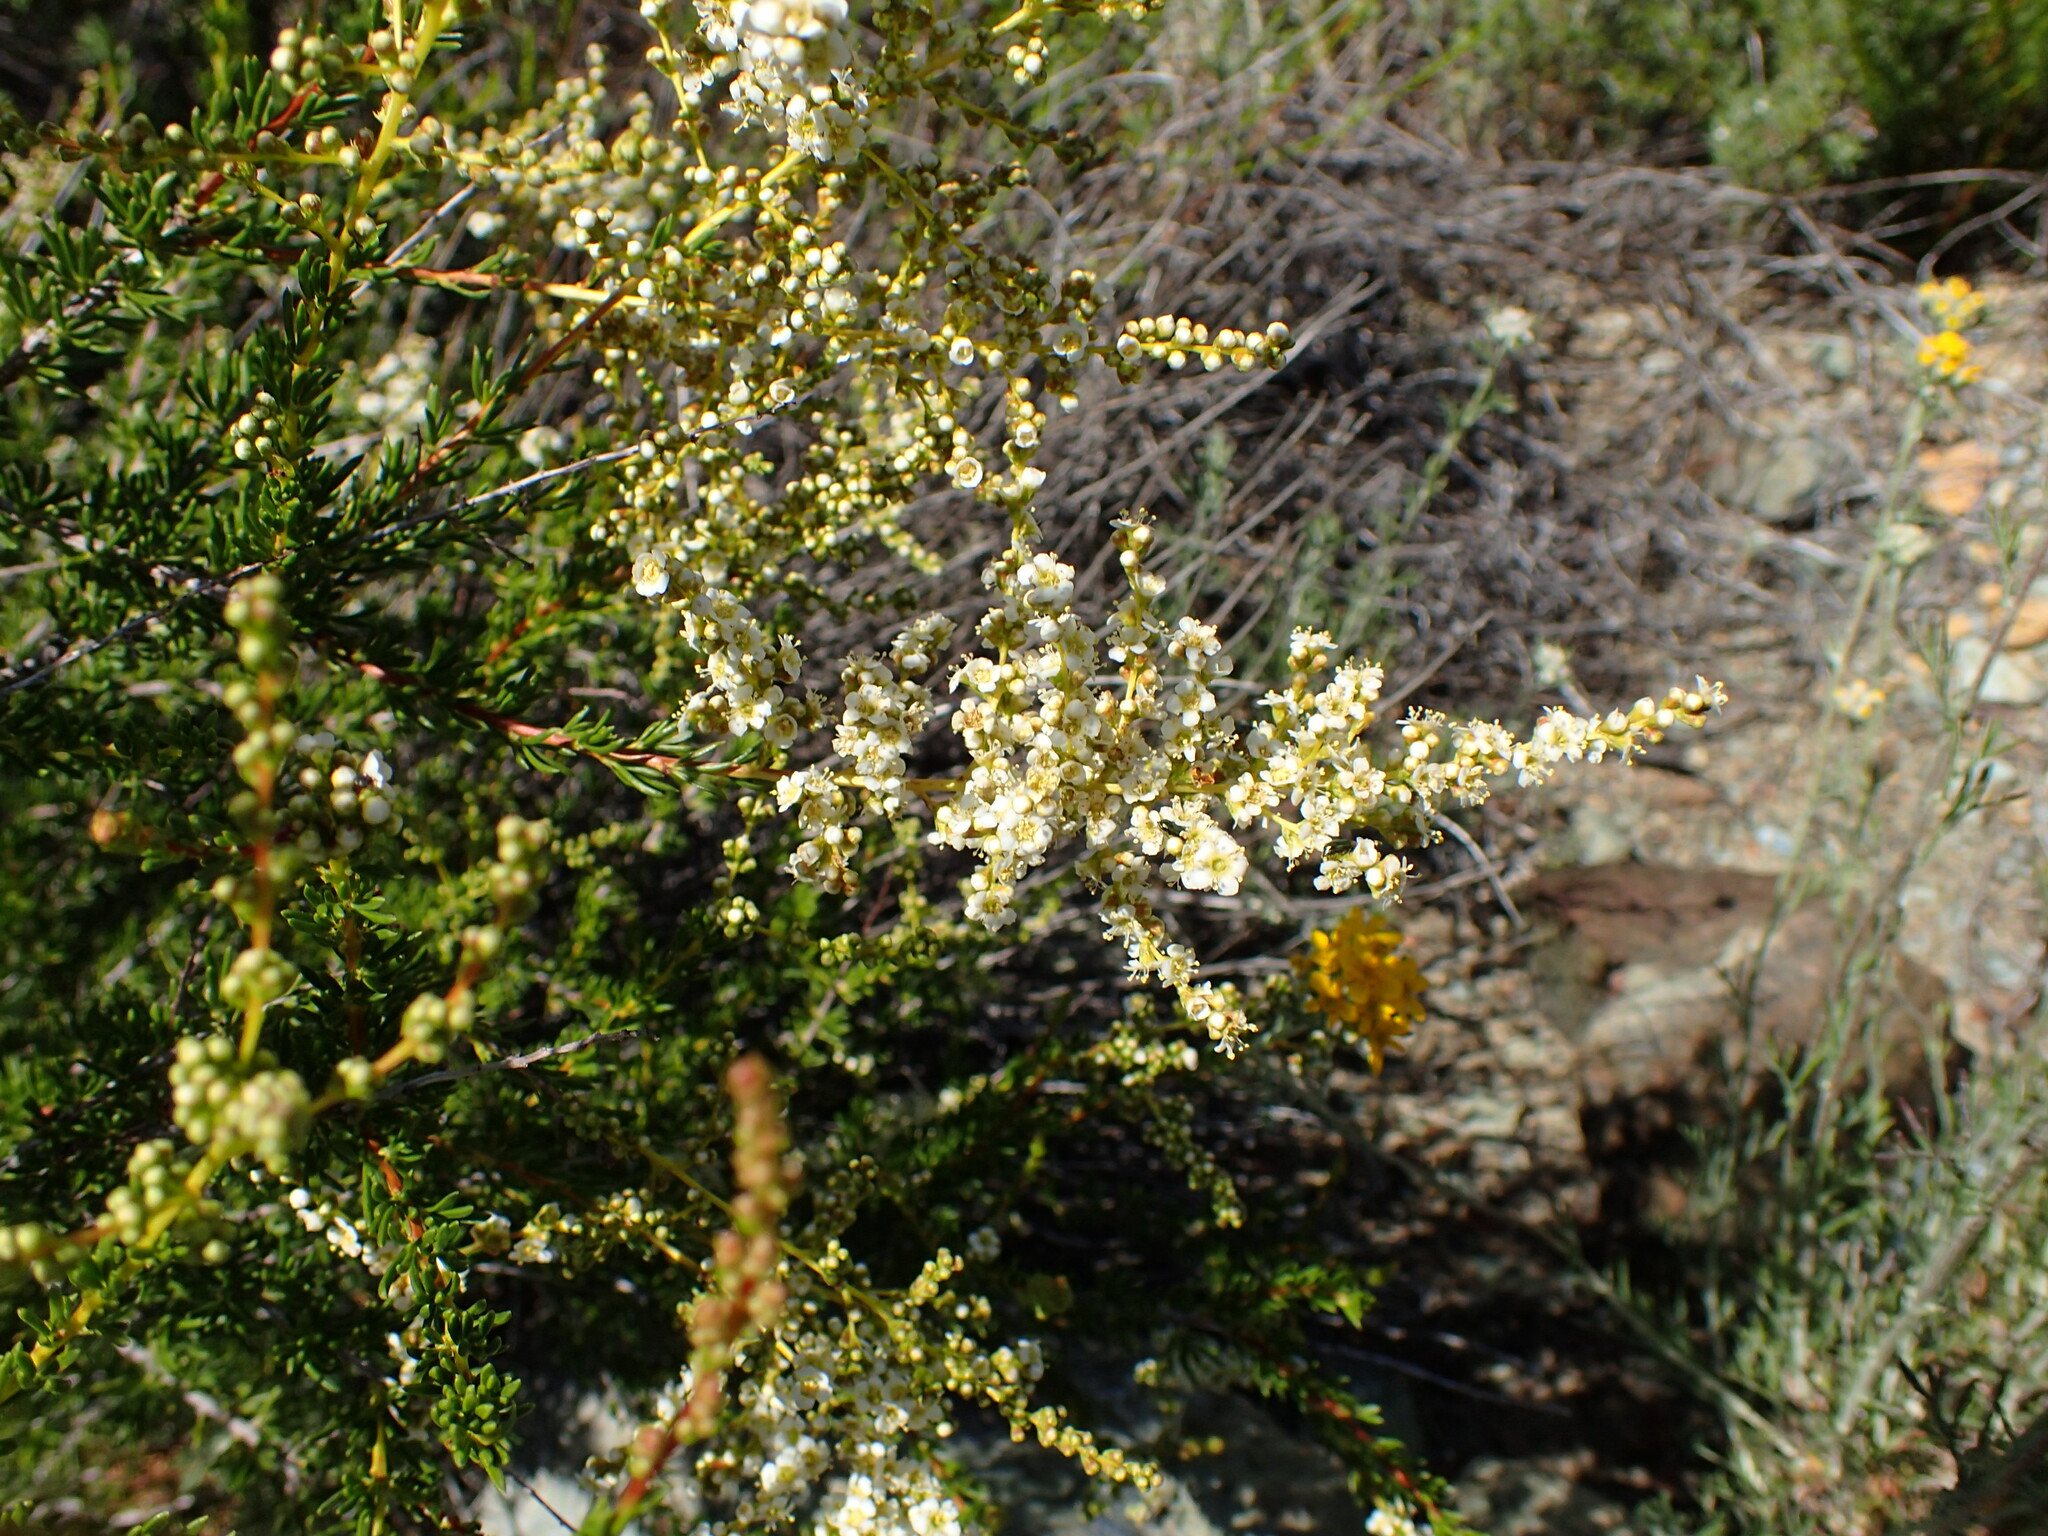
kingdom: Plantae
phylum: Tracheophyta
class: Magnoliopsida
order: Rosales
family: Rosaceae
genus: Adenostoma
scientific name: Adenostoma fasciculatum
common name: Chamise
